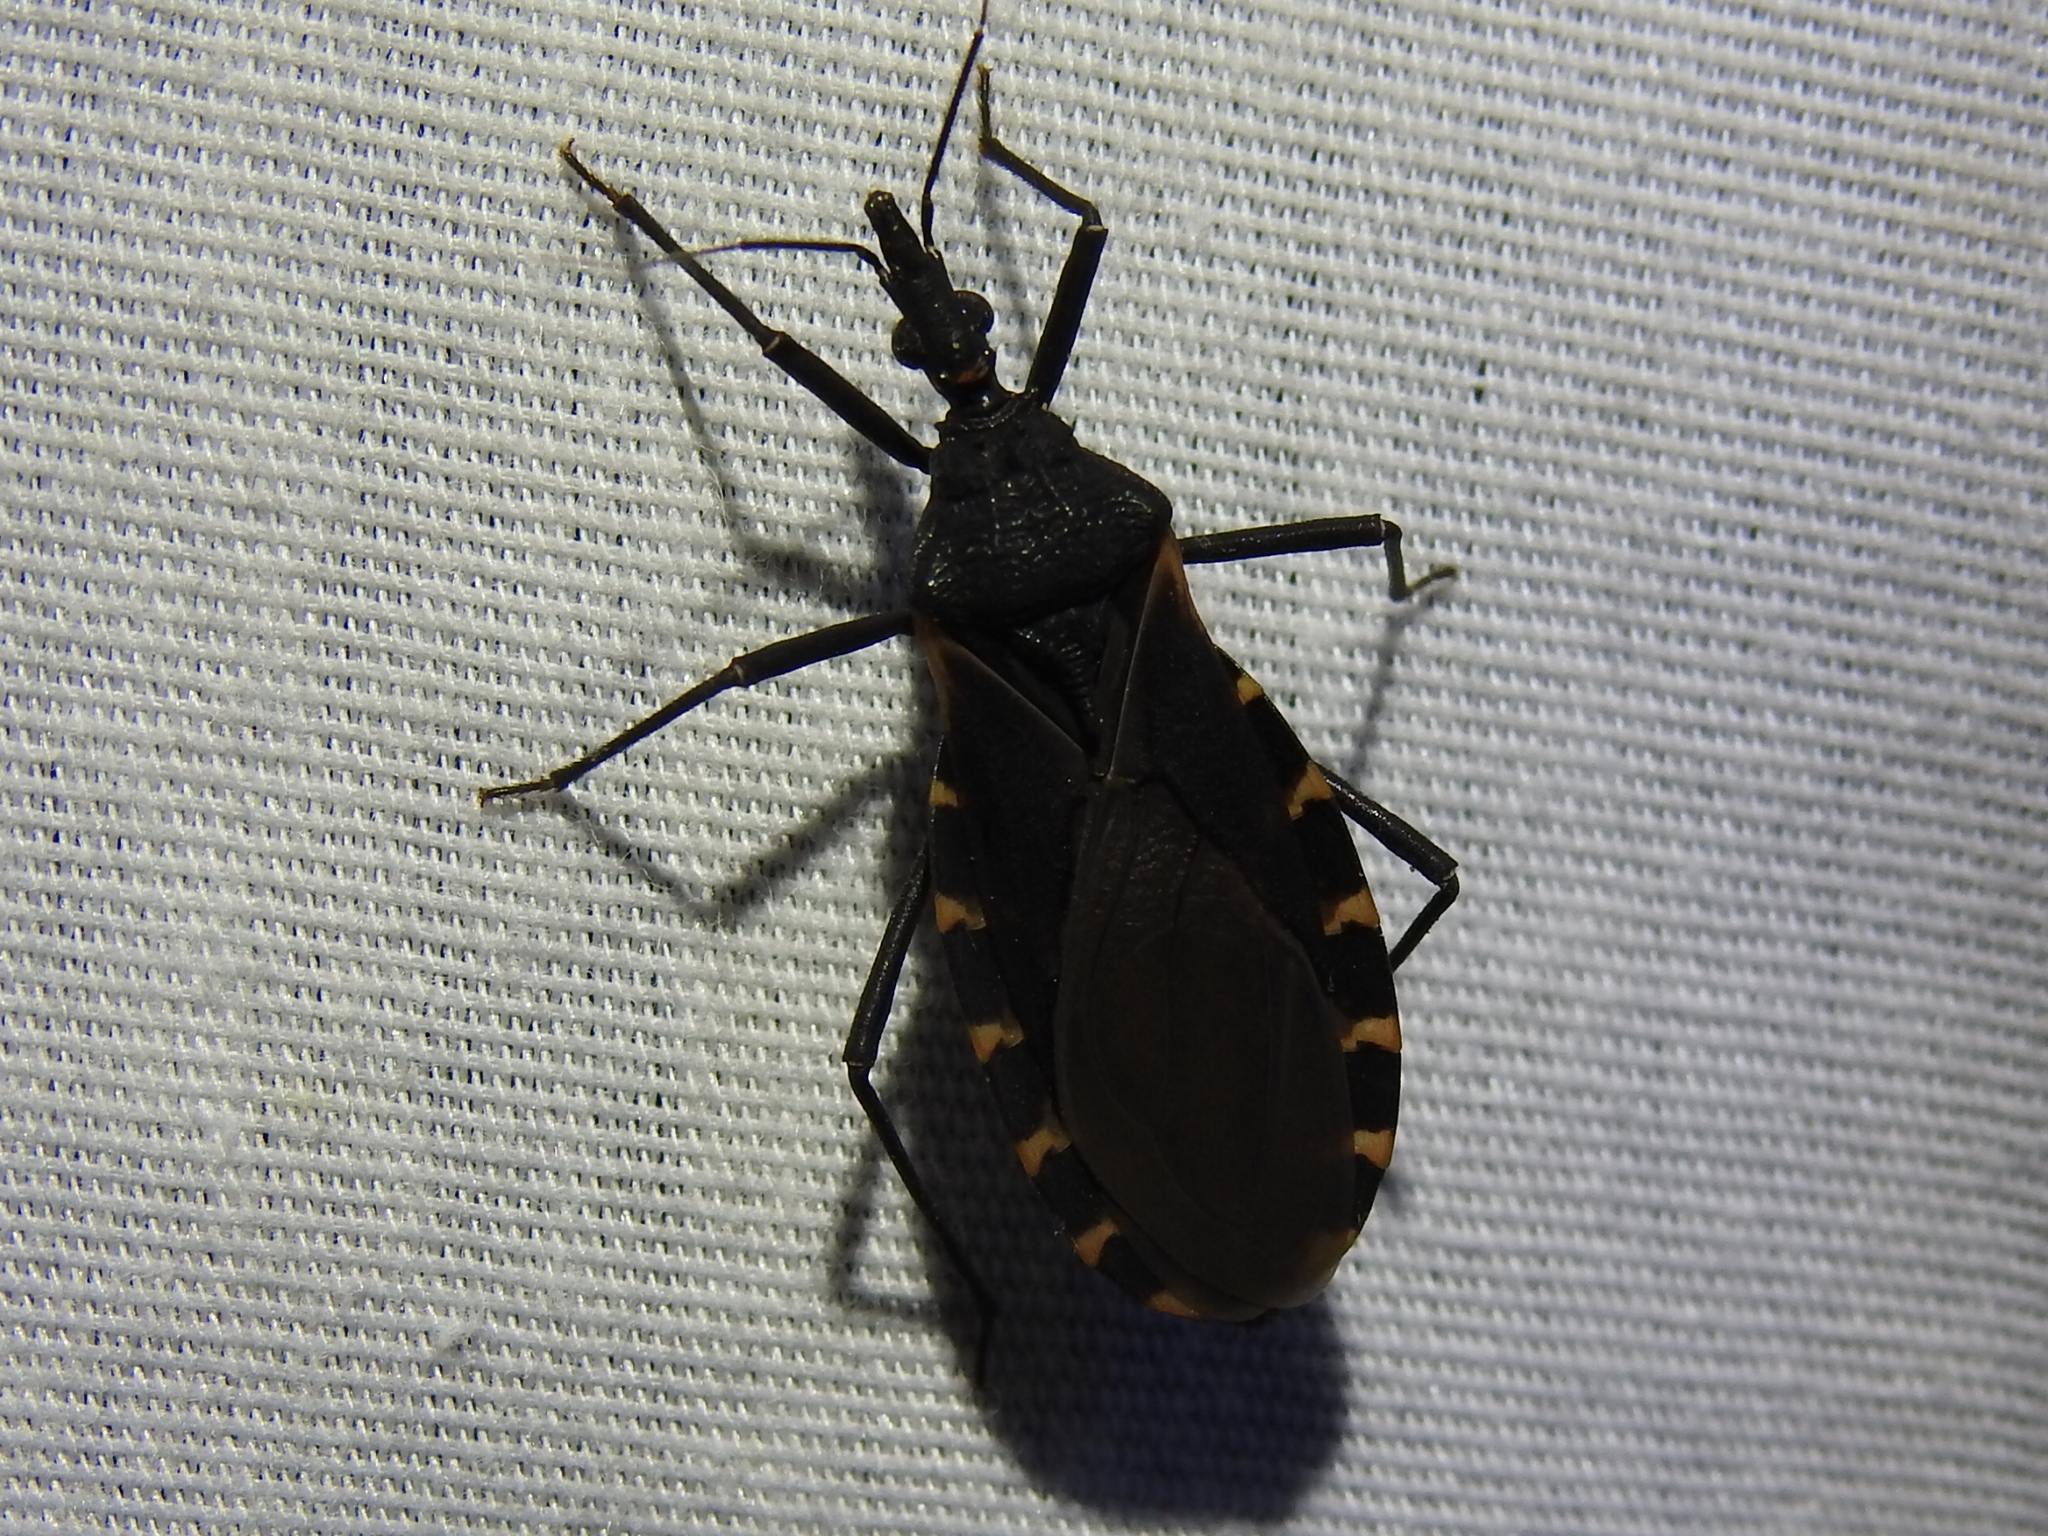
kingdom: Animalia
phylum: Arthropoda
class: Insecta
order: Hemiptera
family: Reduviidae
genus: Triatoma
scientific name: Triatoma gerstaeckeri
